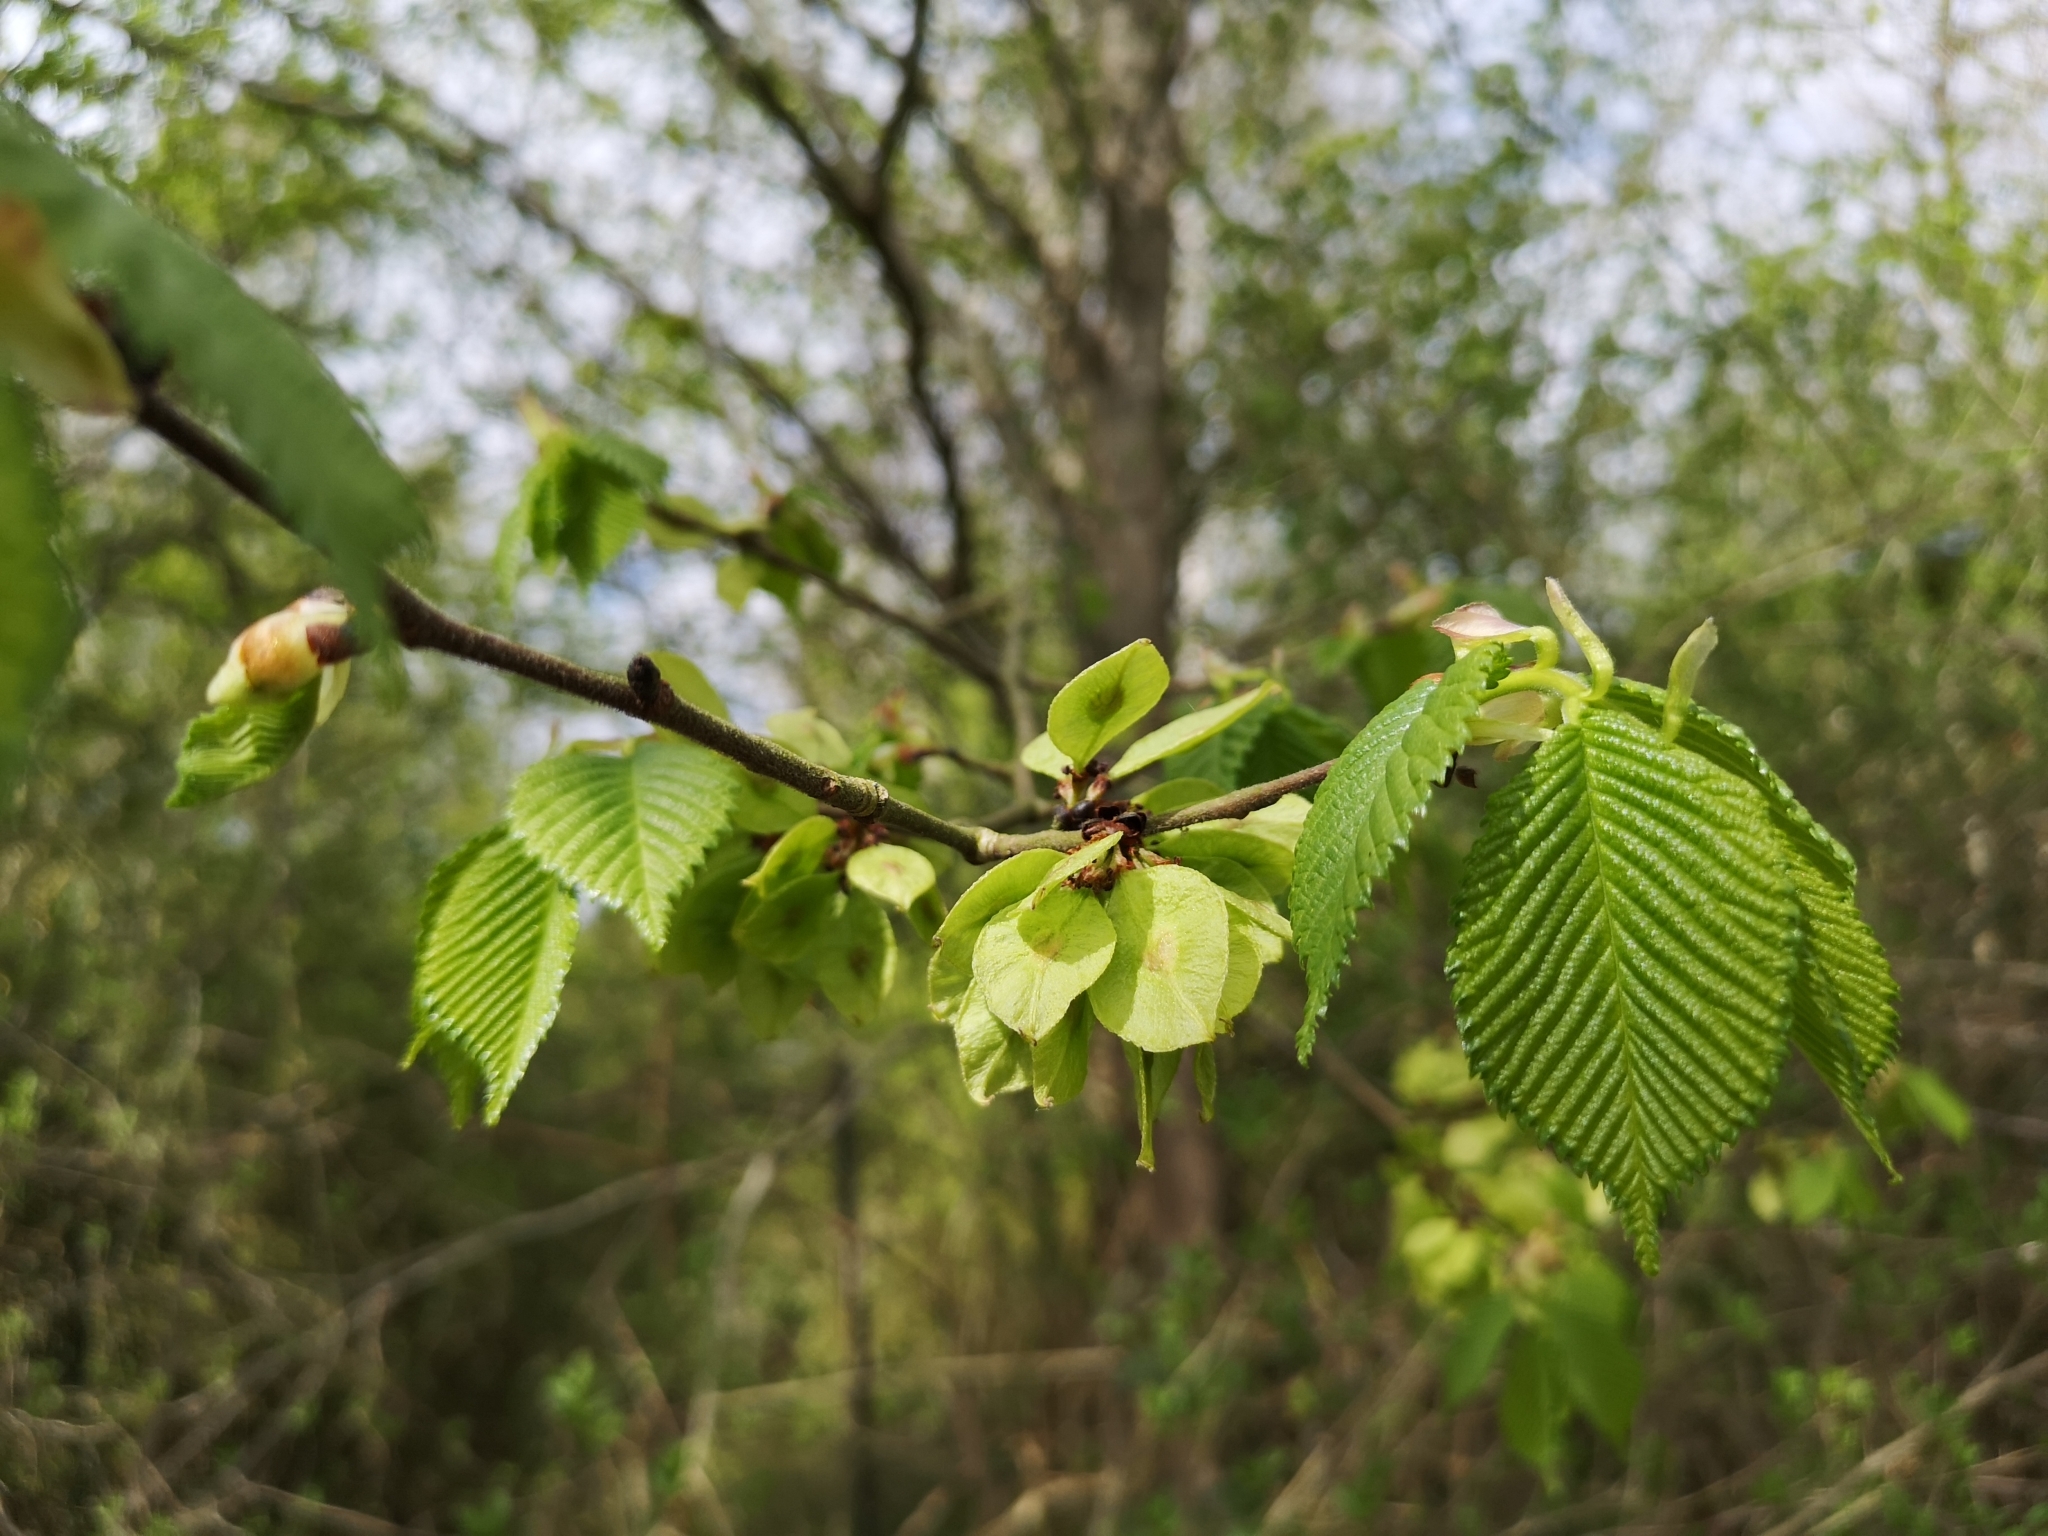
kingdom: Plantae
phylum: Tracheophyta
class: Magnoliopsida
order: Rosales
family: Ulmaceae
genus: Ulmus
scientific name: Ulmus glabra
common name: Wych elm
